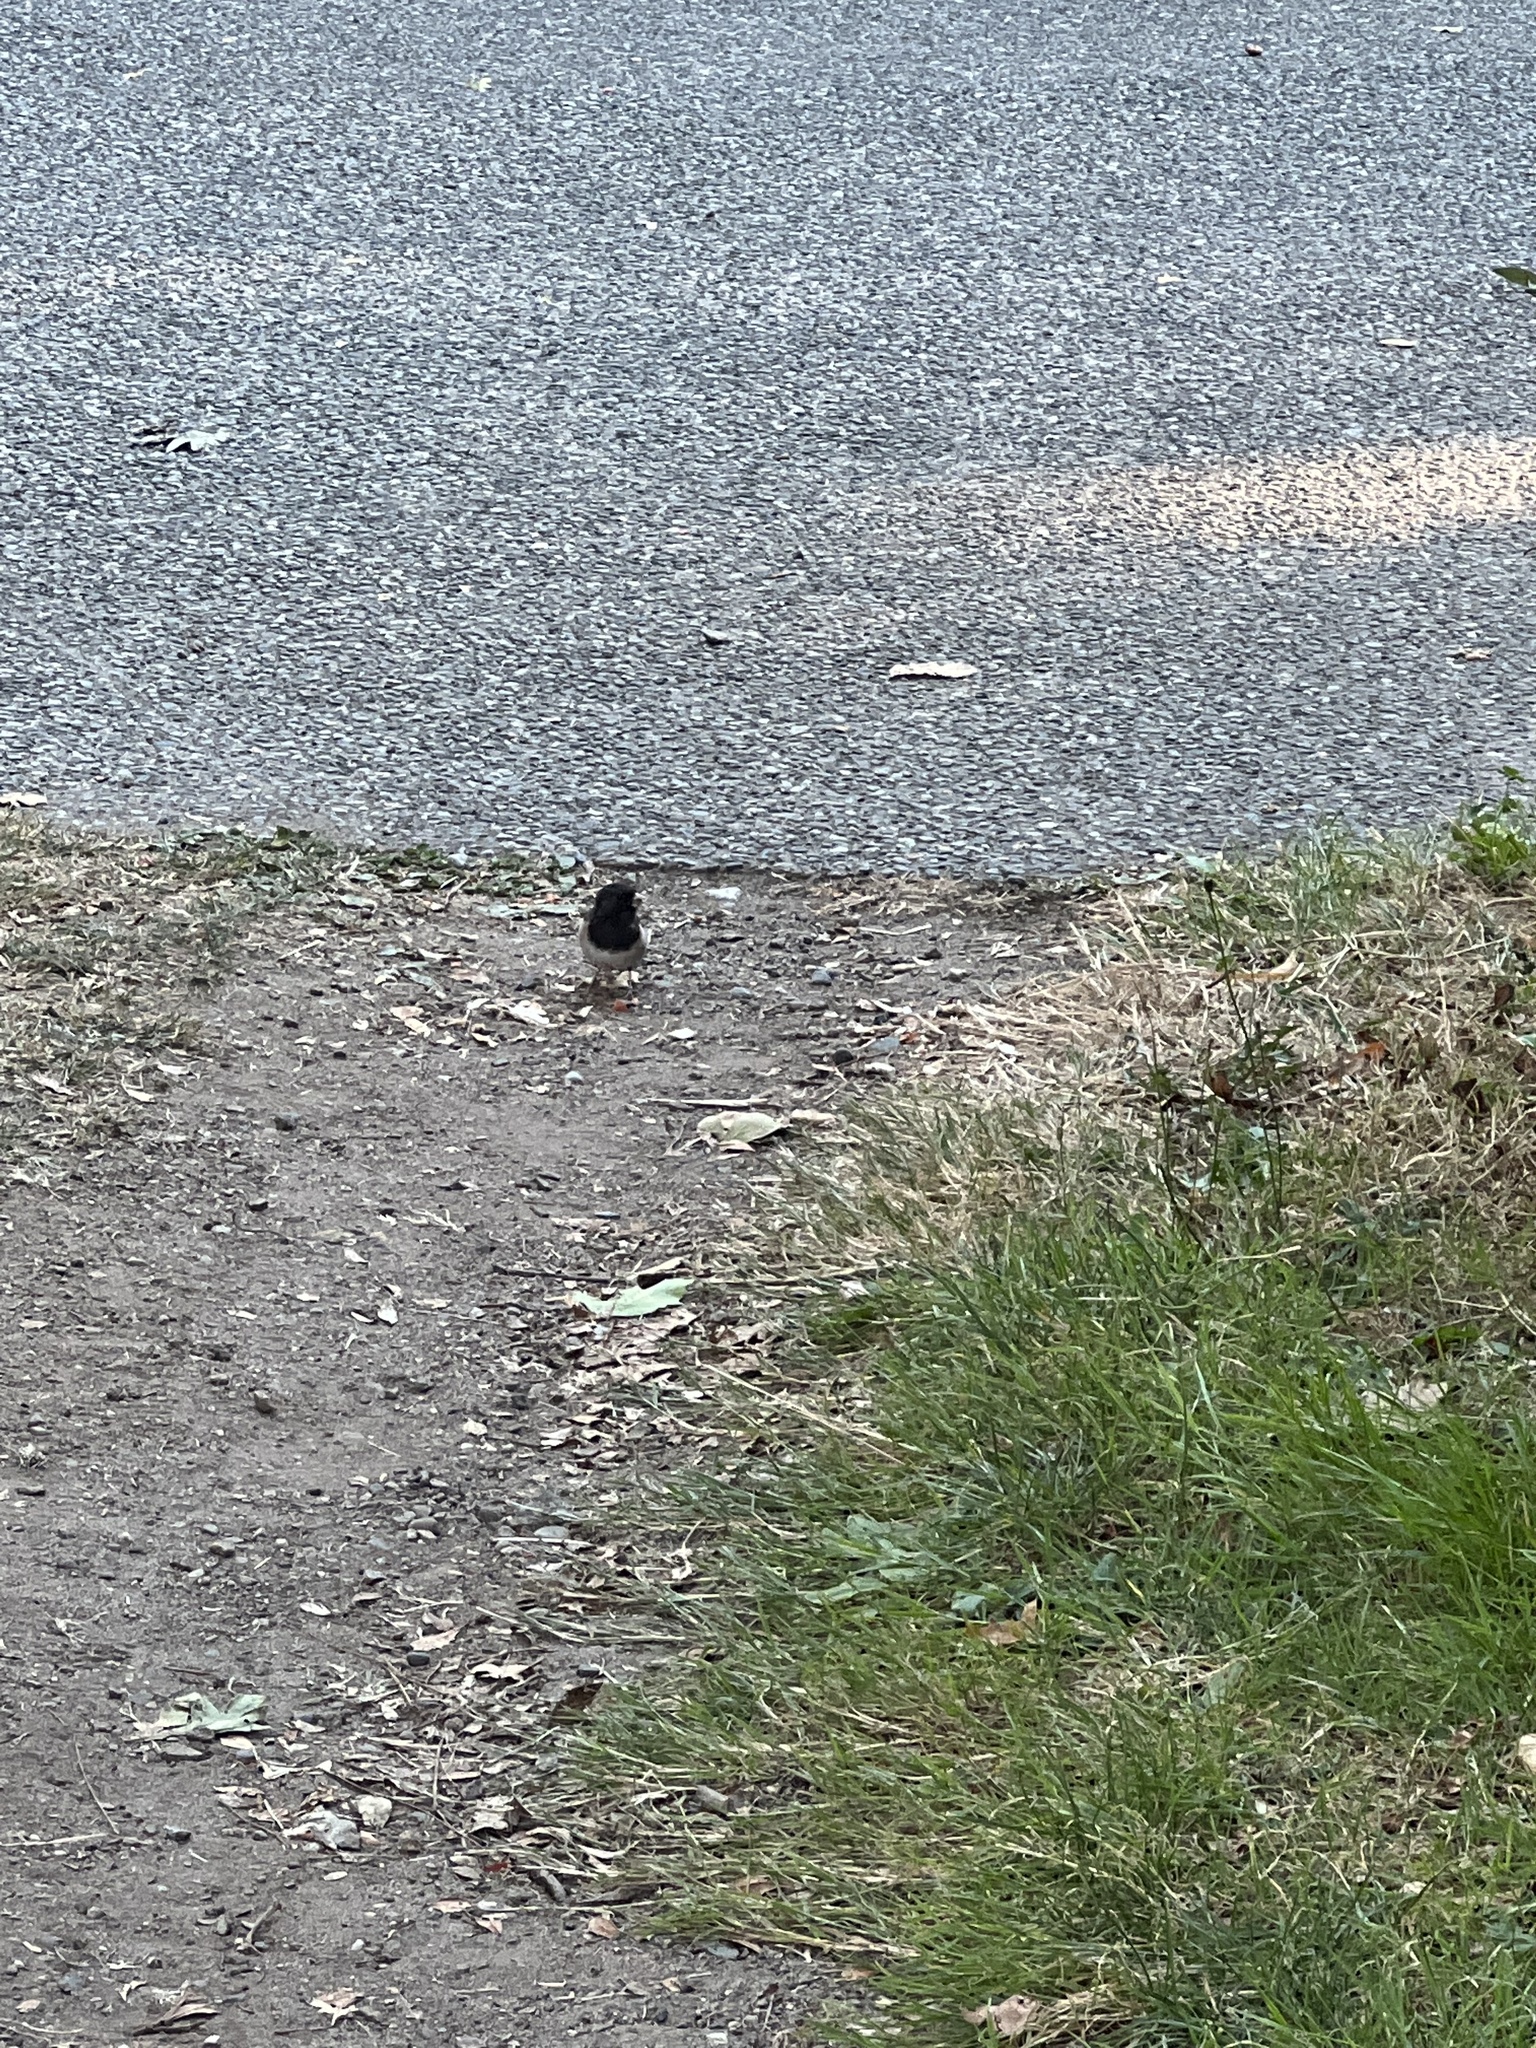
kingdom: Animalia
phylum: Chordata
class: Aves
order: Passeriformes
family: Passerellidae
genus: Junco
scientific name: Junco hyemalis
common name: Dark-eyed junco
